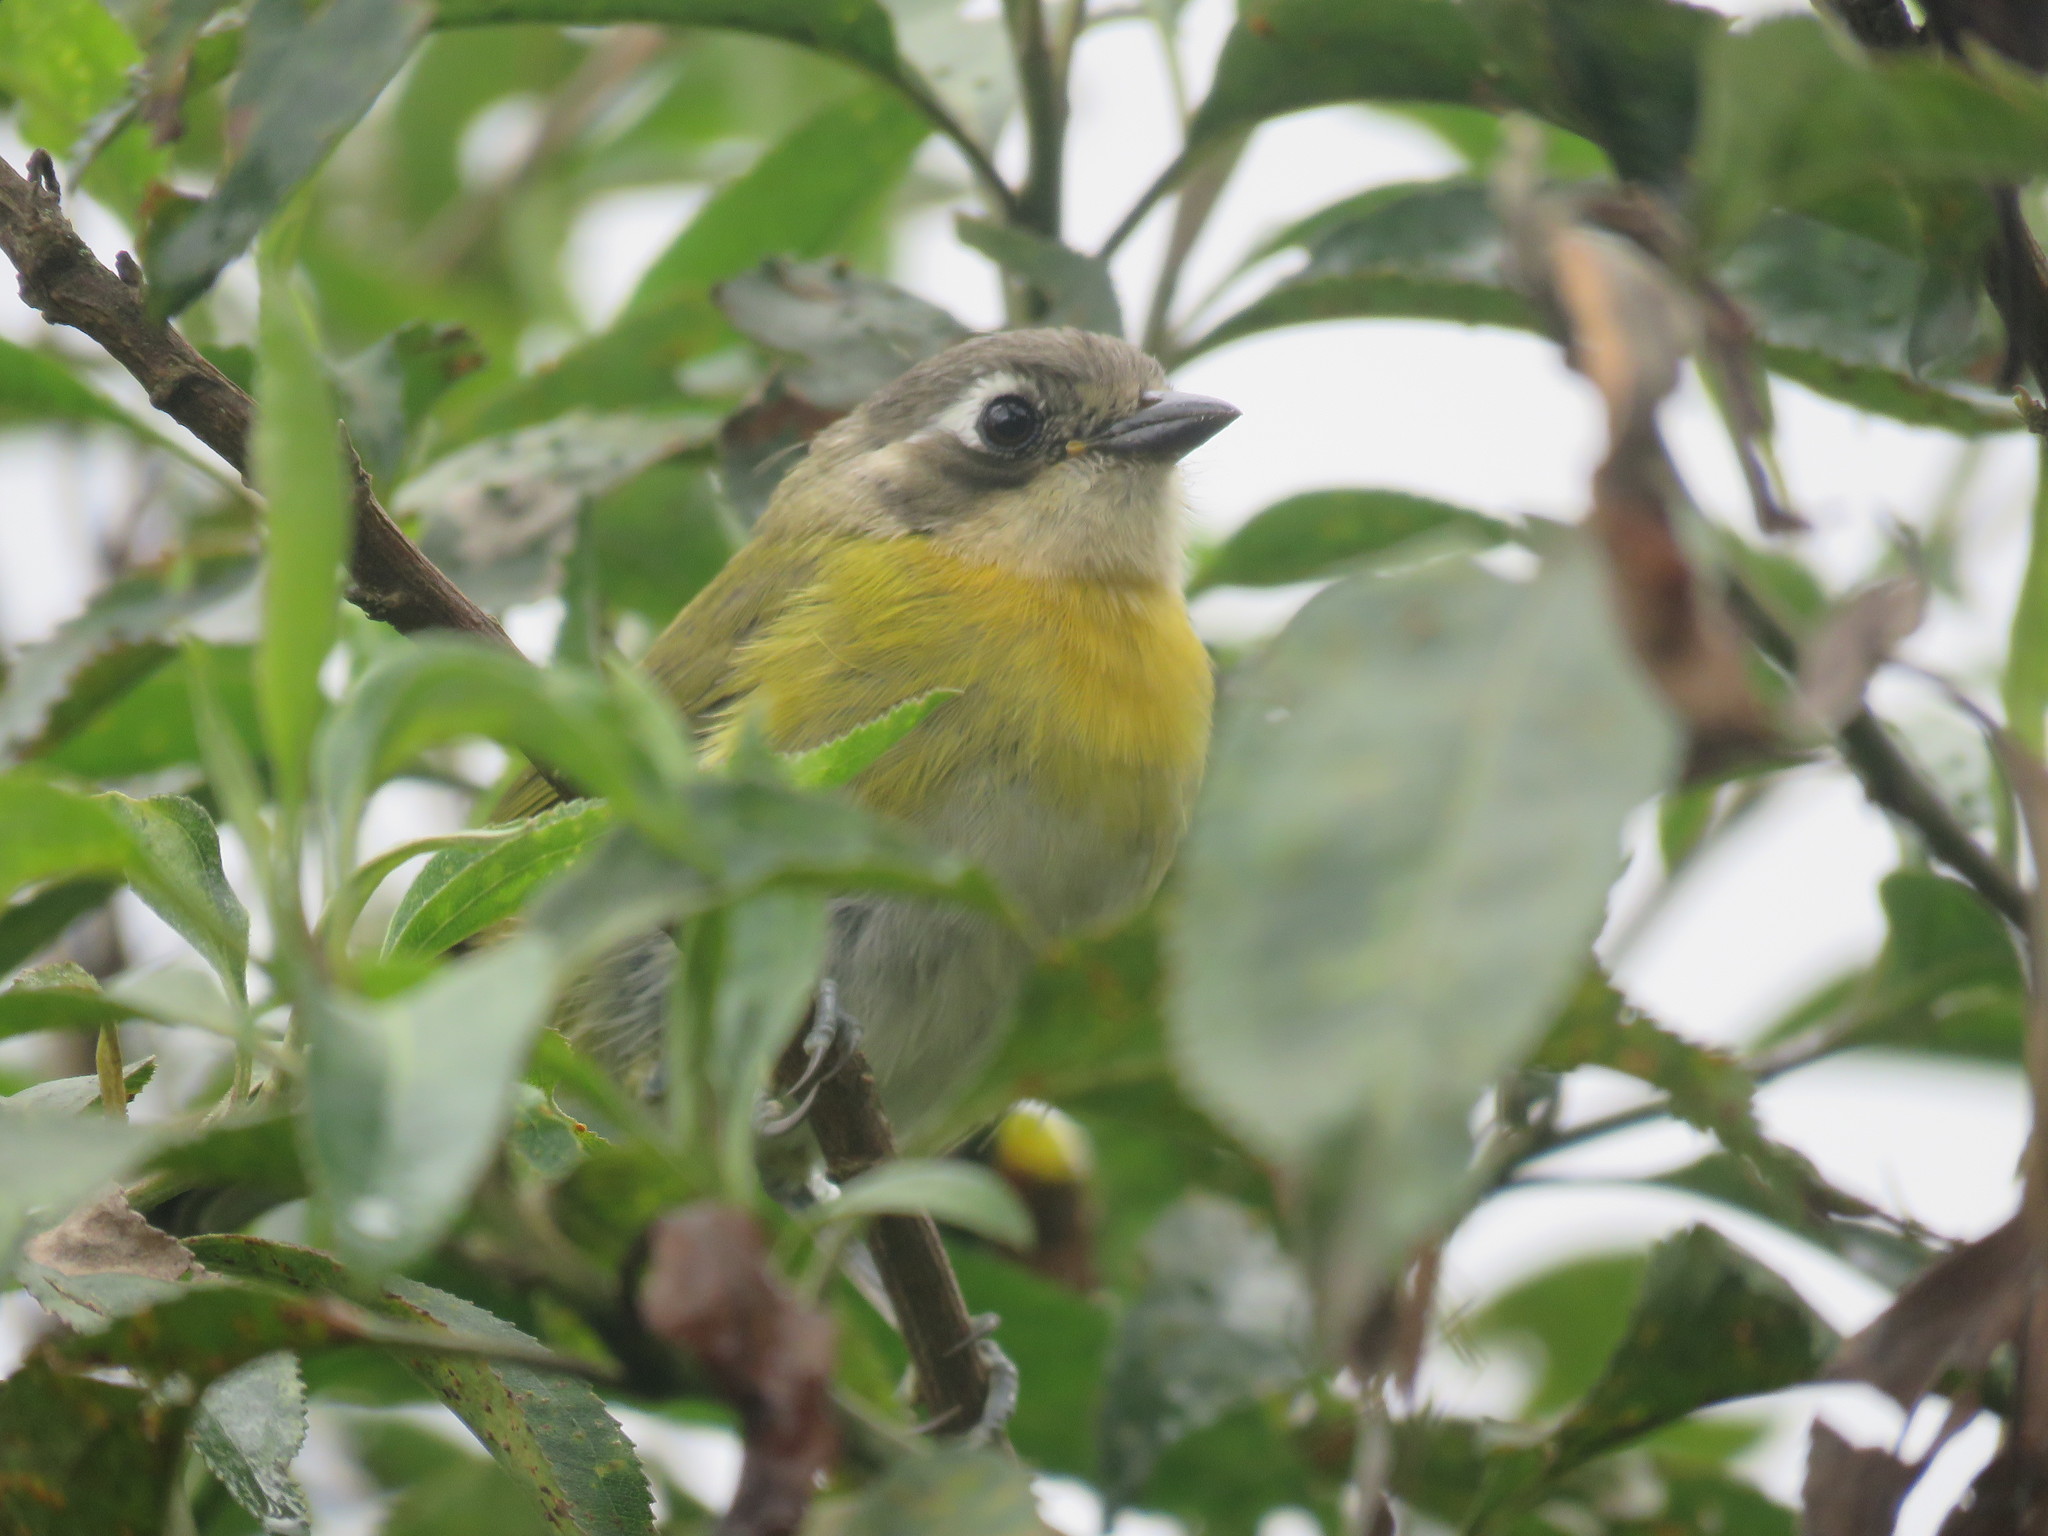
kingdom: Animalia
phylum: Chordata
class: Aves
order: Passeriformes
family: Passerellidae
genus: Chlorospingus
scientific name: Chlorospingus flavopectus
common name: Common chlorospingus
